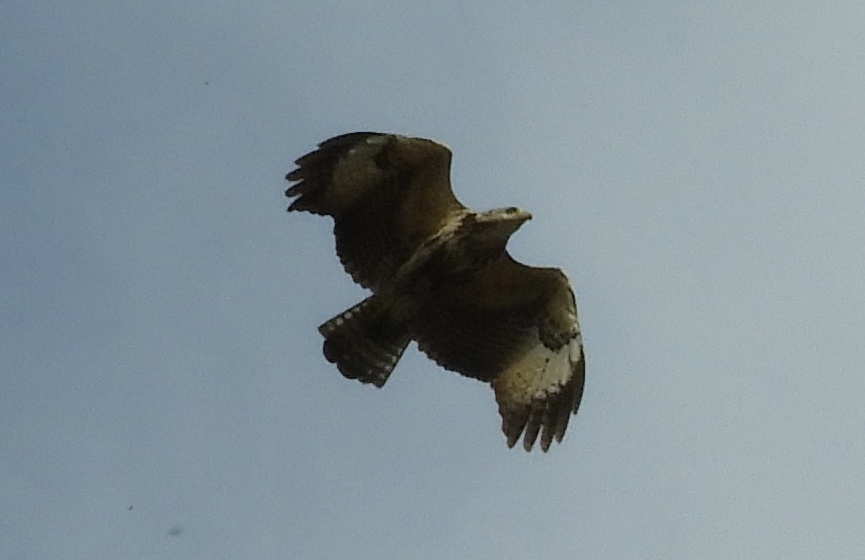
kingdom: Animalia
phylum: Chordata
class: Aves
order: Accipitriformes
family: Accipitridae
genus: Buteogallus
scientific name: Buteogallus urubitinga
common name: Great black hawk
